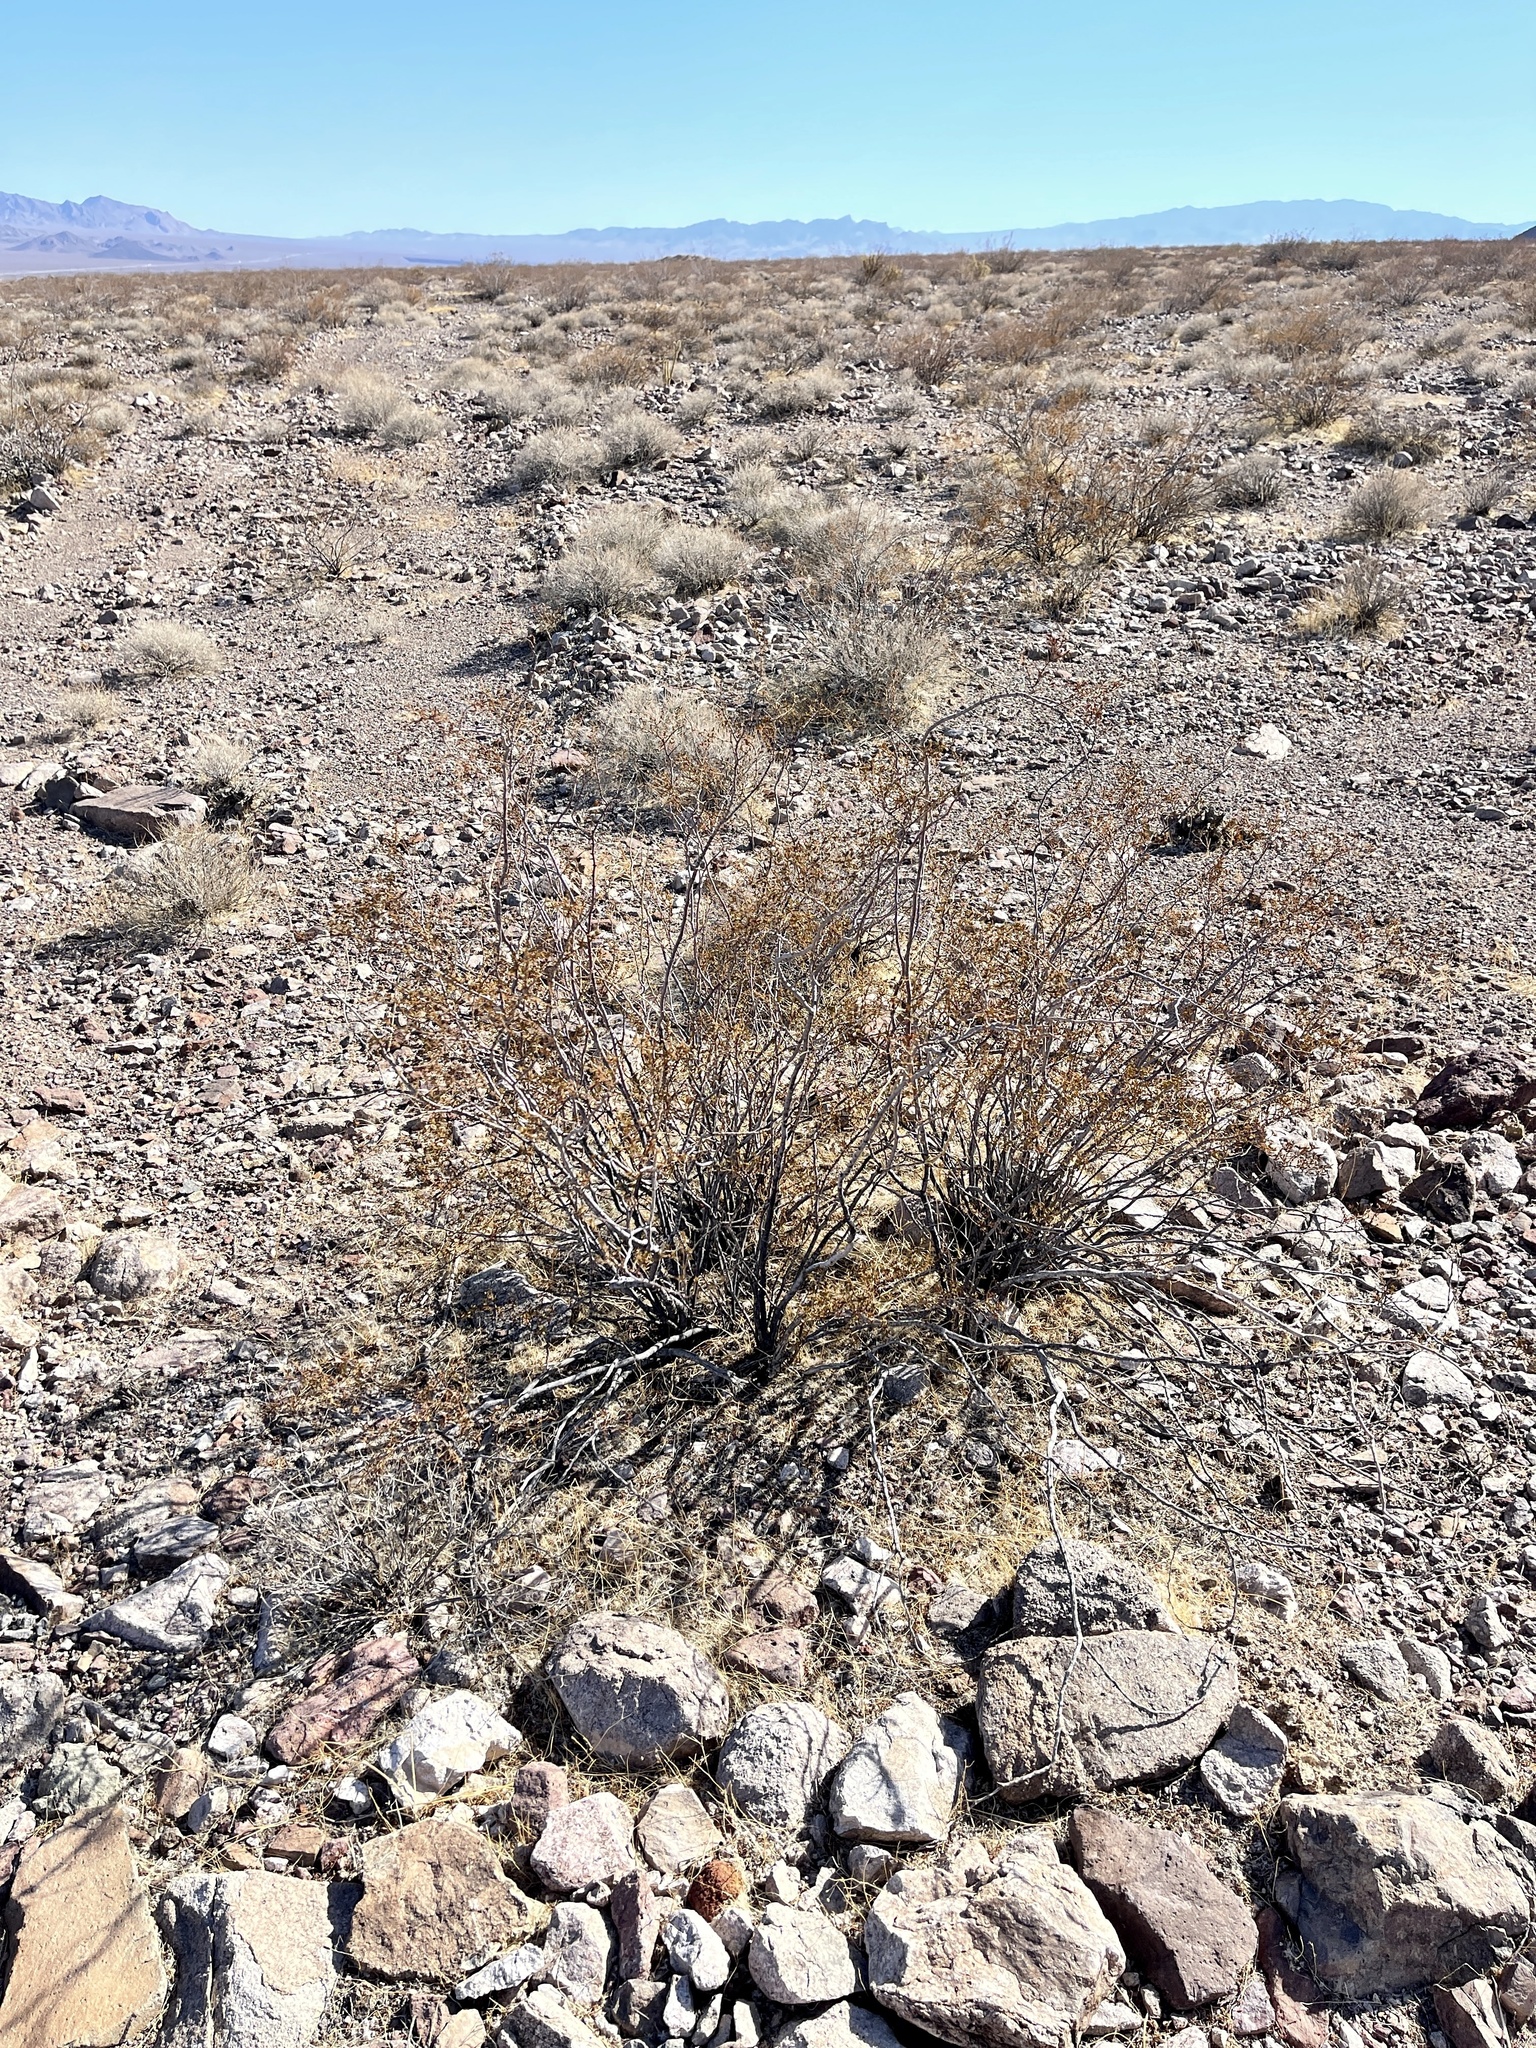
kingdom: Plantae
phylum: Tracheophyta
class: Magnoliopsida
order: Zygophyllales
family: Zygophyllaceae
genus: Larrea
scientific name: Larrea tridentata
